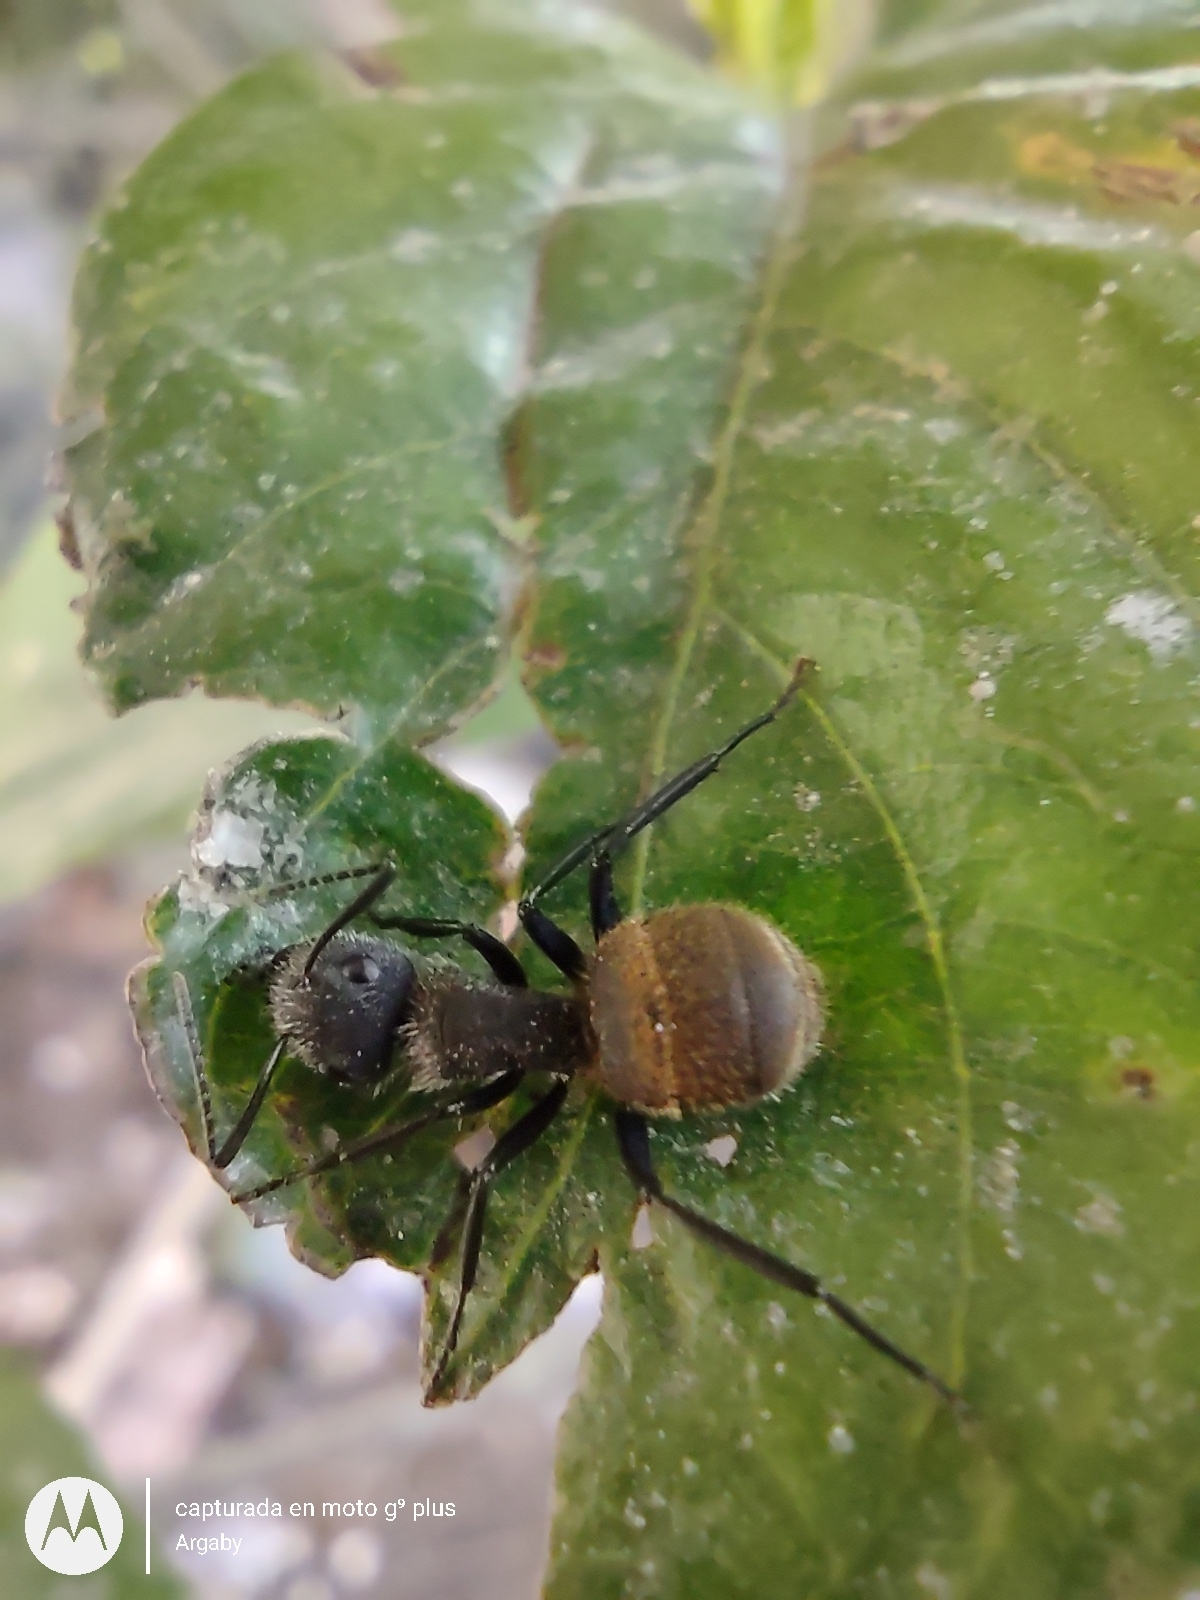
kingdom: Animalia
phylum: Arthropoda
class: Insecta
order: Hymenoptera
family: Formicidae
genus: Camponotus
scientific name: Camponotus mus
